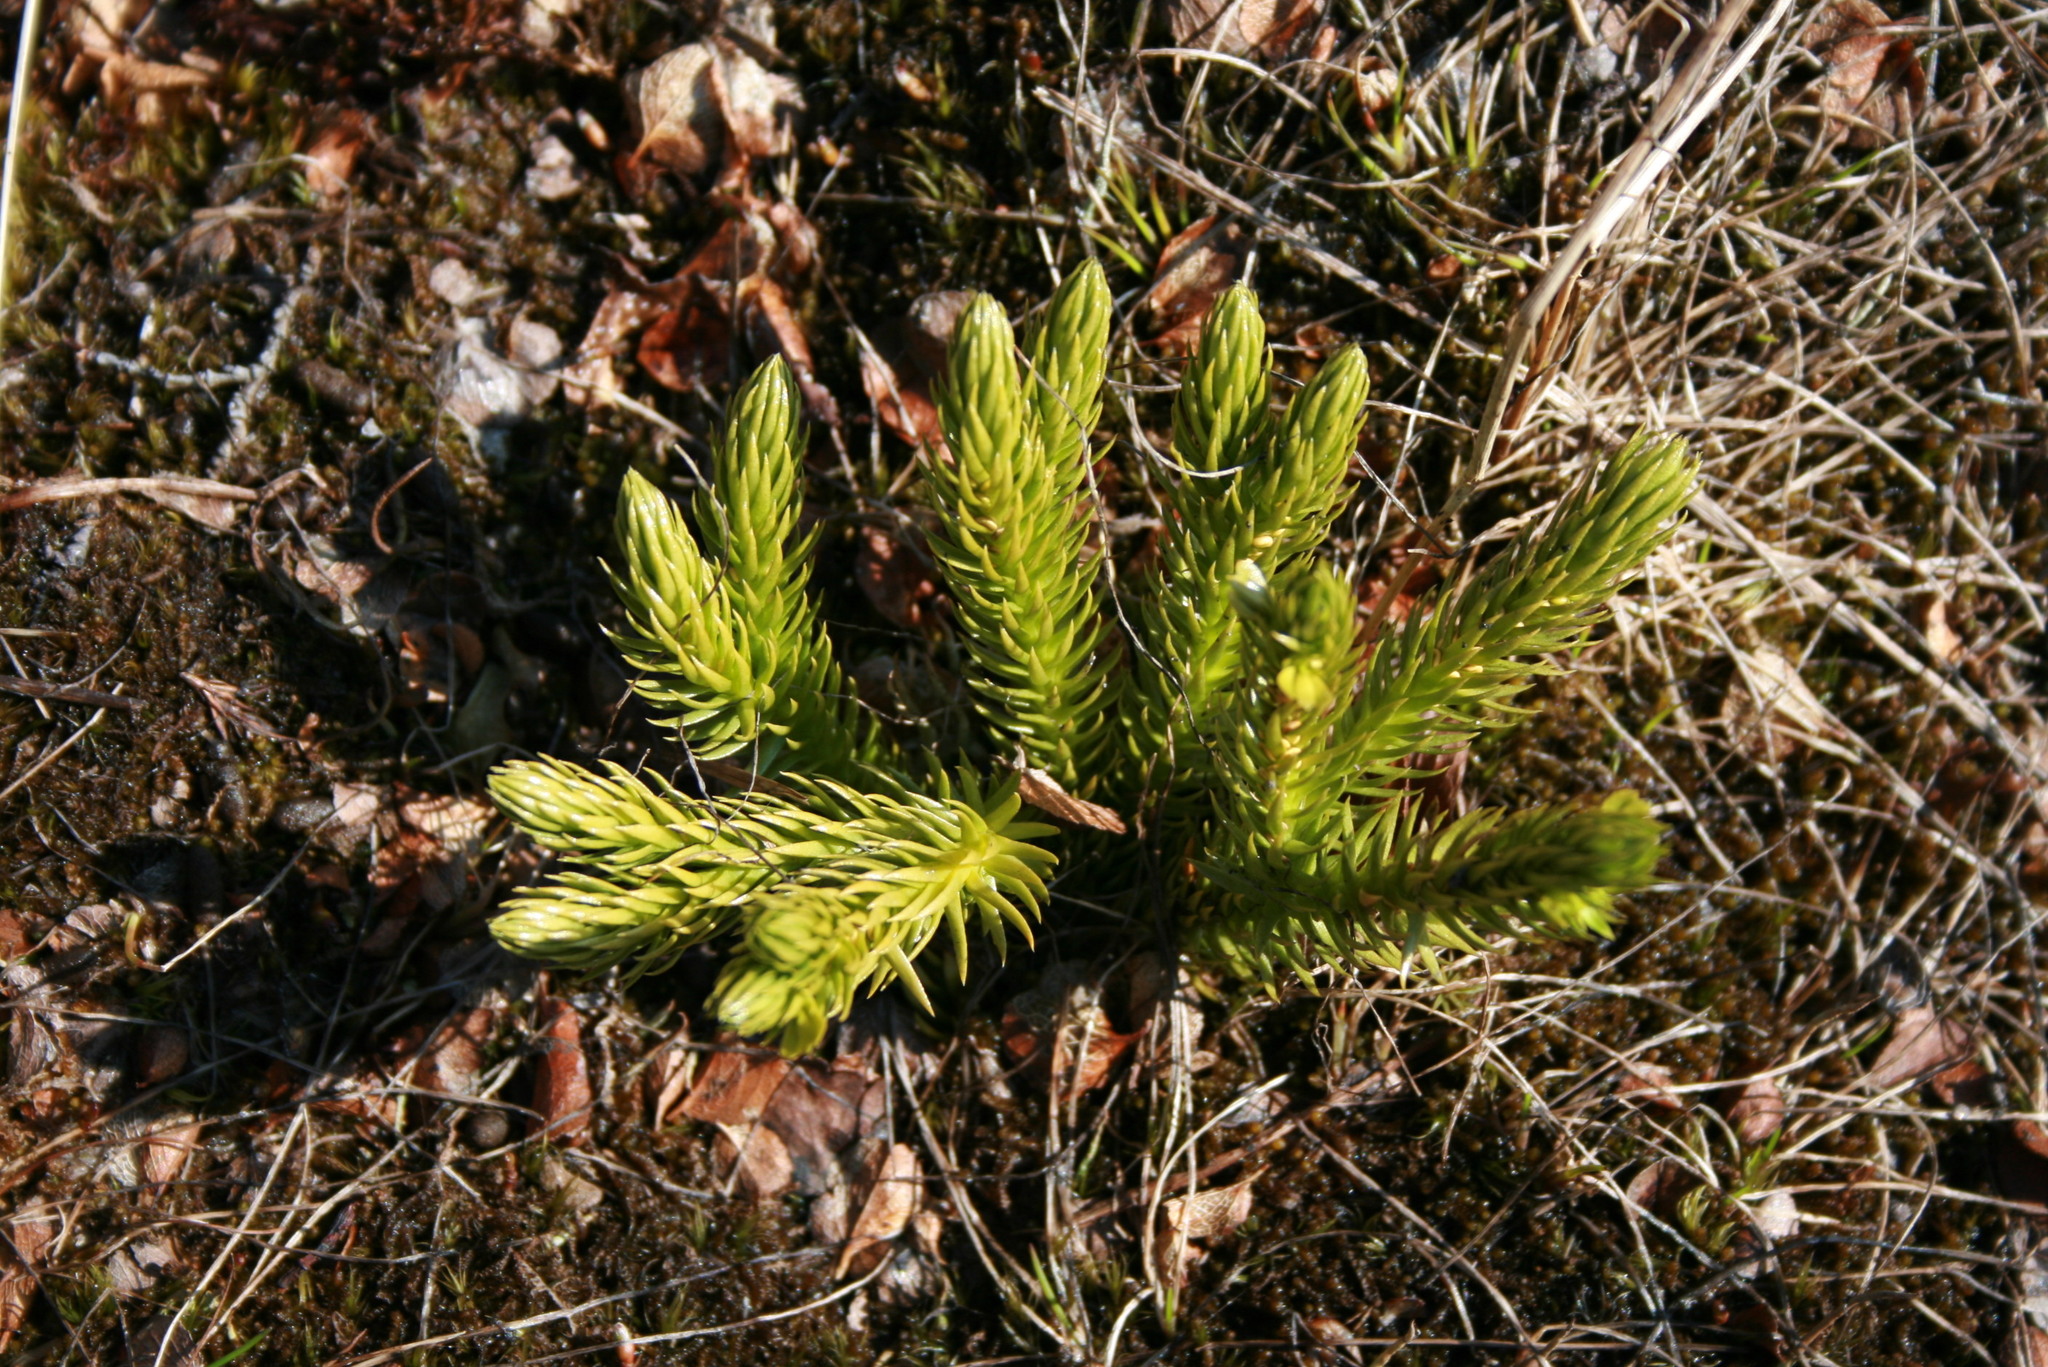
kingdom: Plantae
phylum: Tracheophyta
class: Lycopodiopsida
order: Lycopodiales
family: Lycopodiaceae
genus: Huperzia
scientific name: Huperzia selago
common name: Northern firmoss
